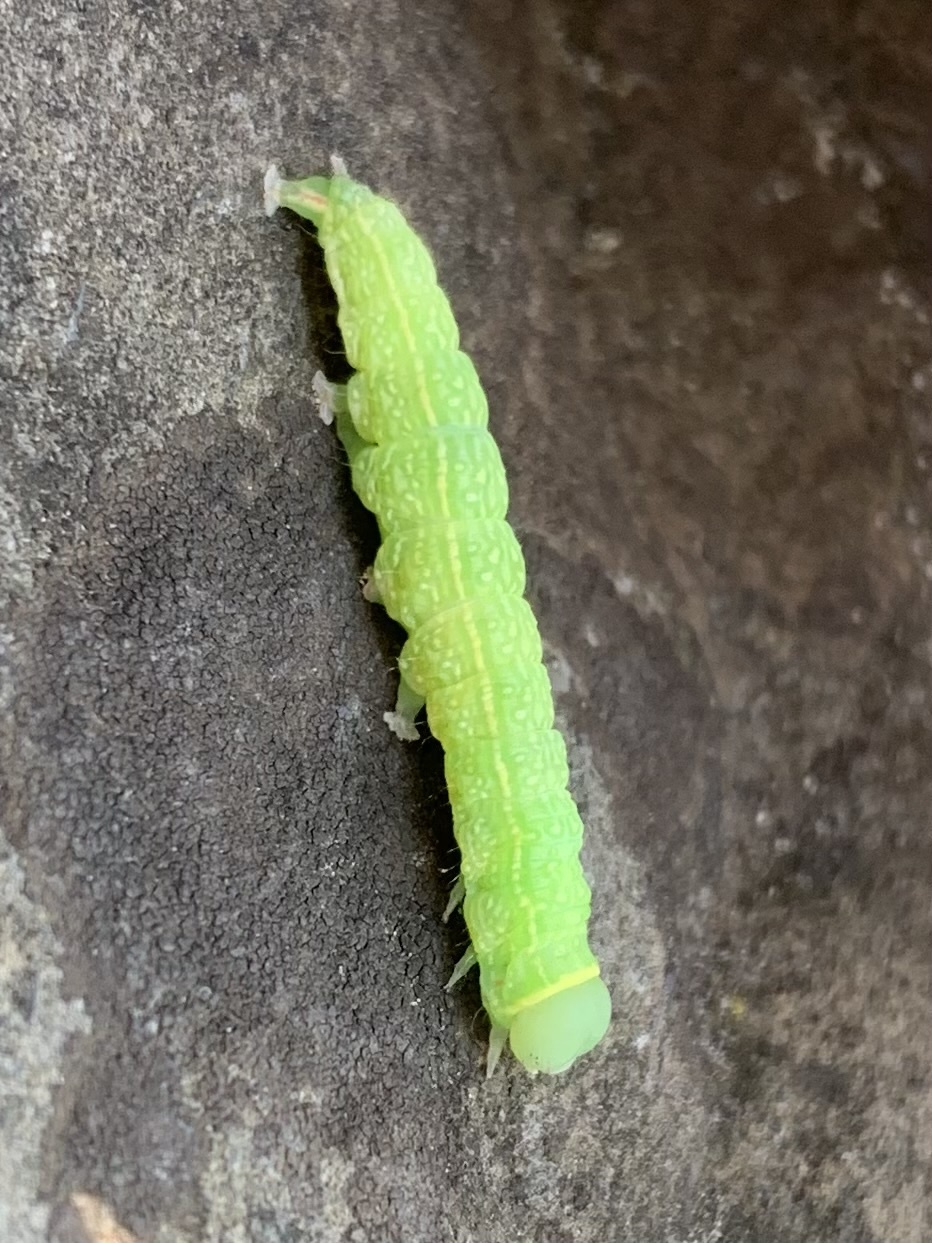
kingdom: Animalia
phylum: Arthropoda
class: Insecta
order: Lepidoptera
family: Nolidae
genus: Pseudoips
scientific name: Pseudoips prasinana
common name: Green silver-lines
